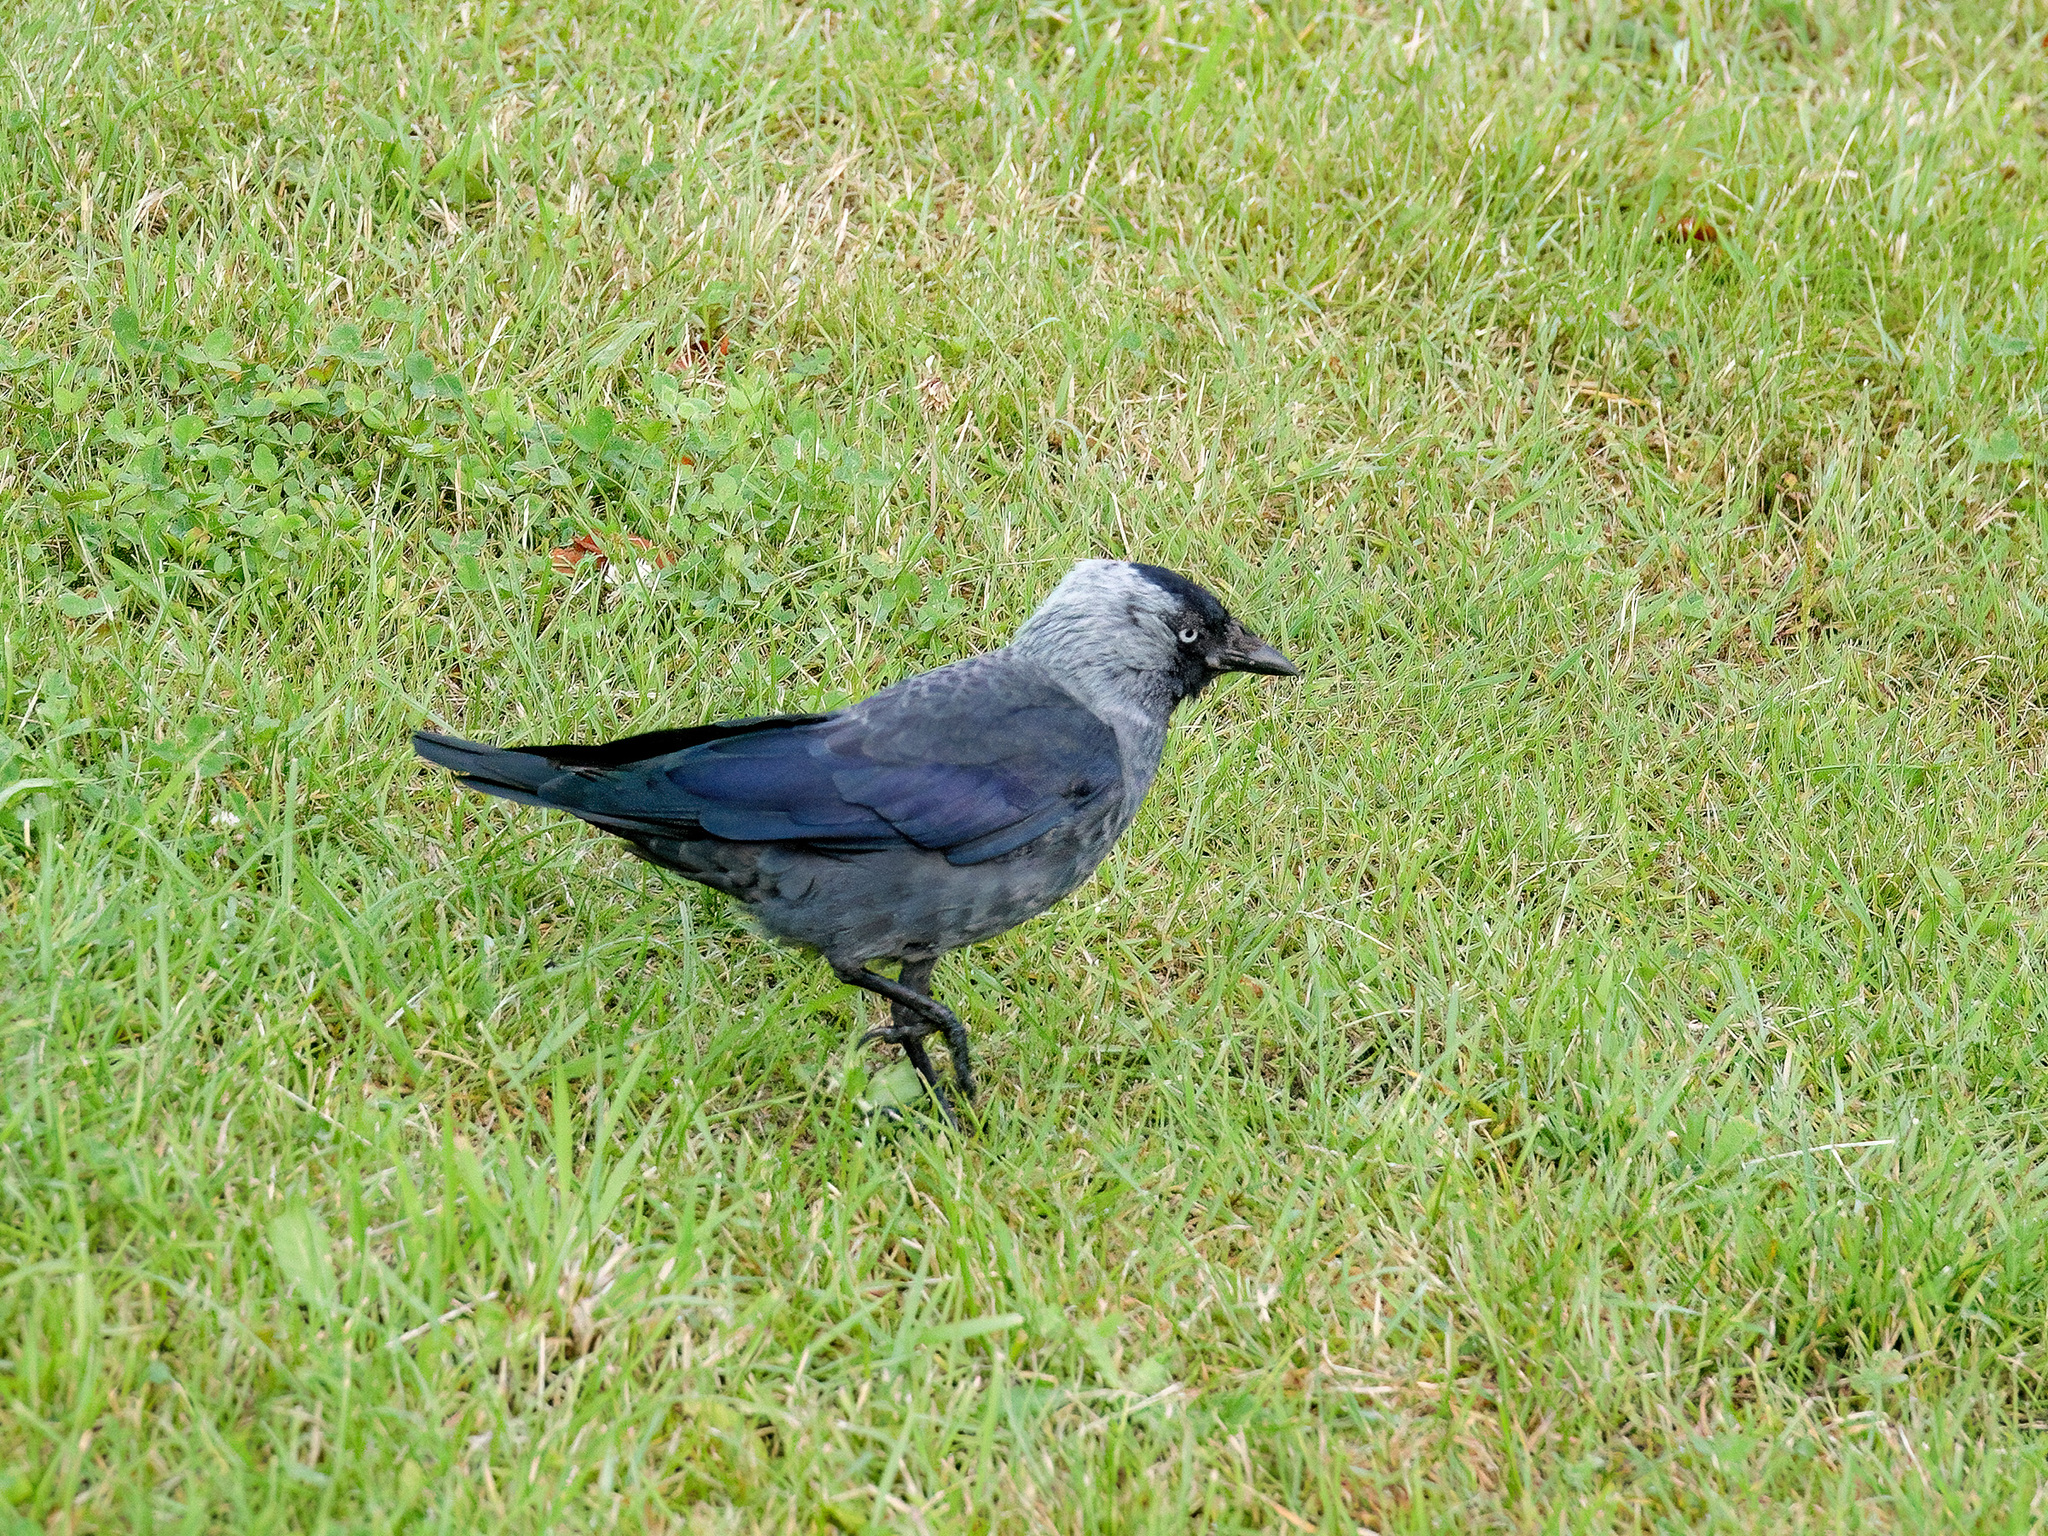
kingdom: Animalia
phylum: Chordata
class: Aves
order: Passeriformes
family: Corvidae
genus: Coloeus
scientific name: Coloeus monedula
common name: Western jackdaw
